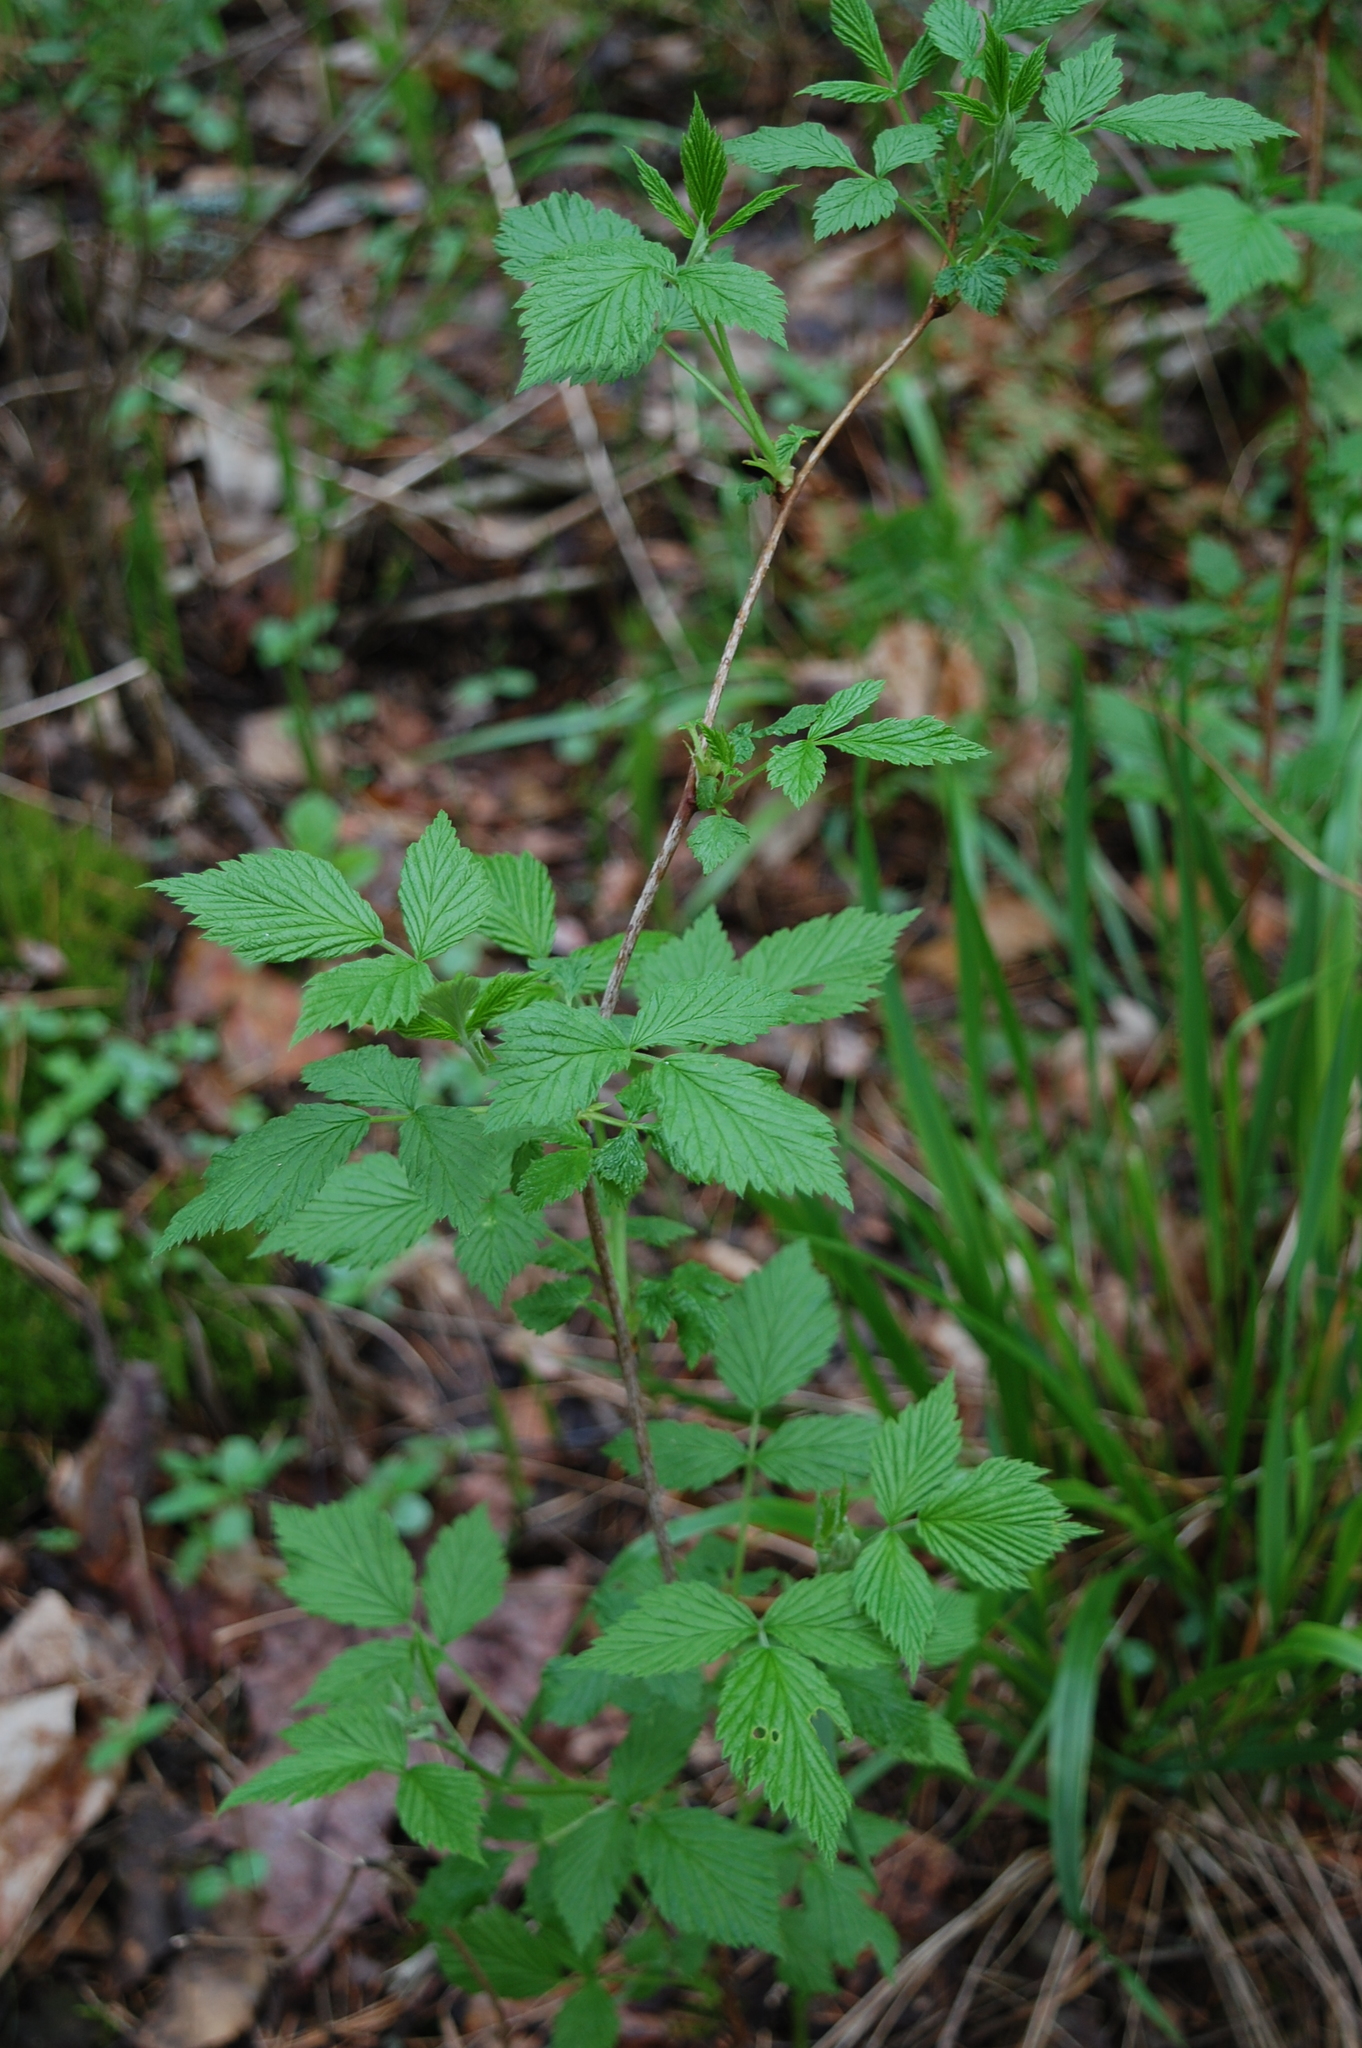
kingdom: Plantae
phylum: Tracheophyta
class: Magnoliopsida
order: Rosales
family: Rosaceae
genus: Rubus
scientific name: Rubus idaeus
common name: Raspberry
